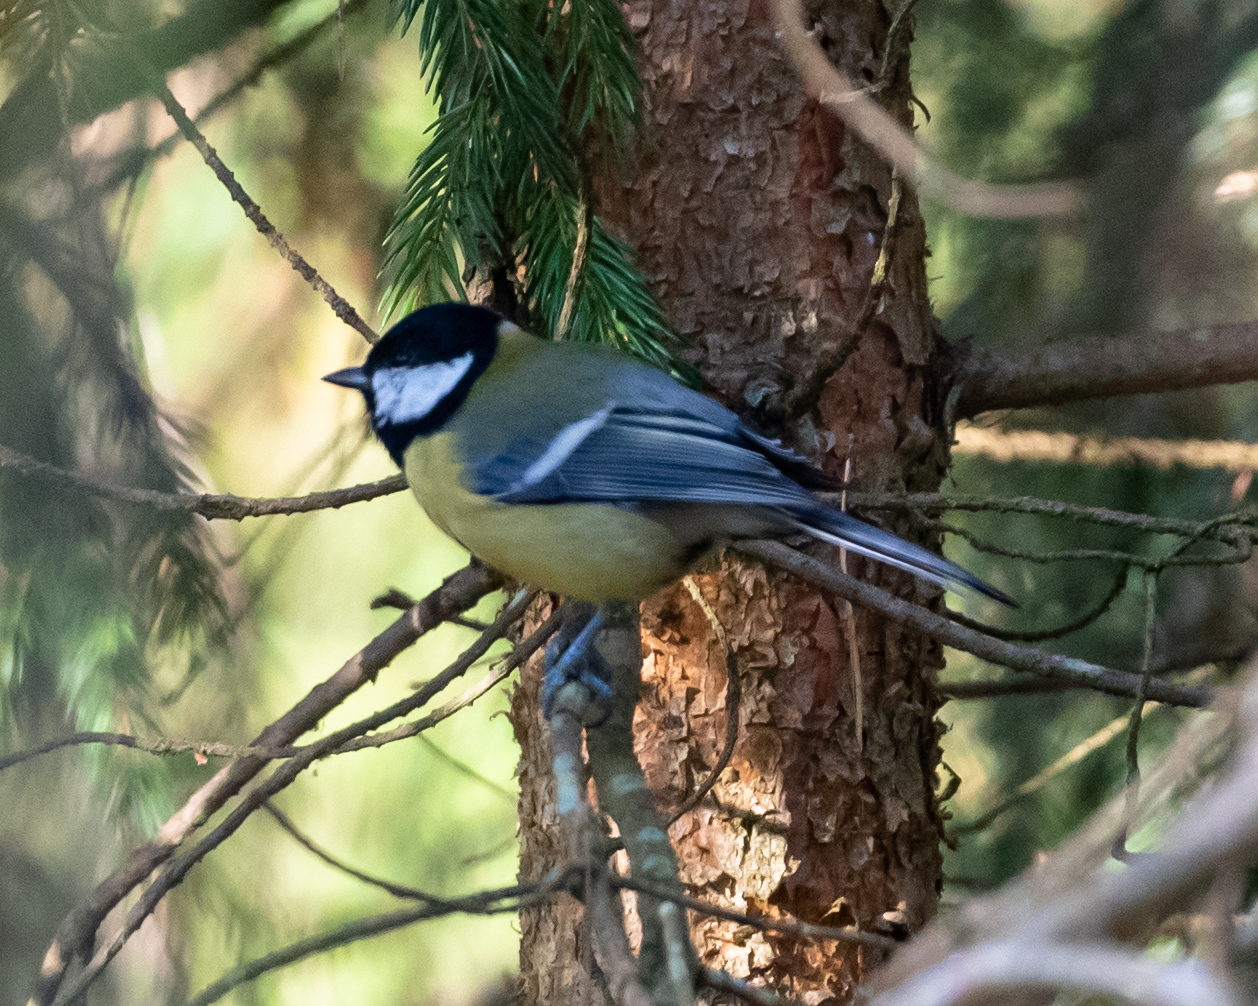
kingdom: Animalia
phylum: Chordata
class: Aves
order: Passeriformes
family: Paridae
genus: Parus
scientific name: Parus major
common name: Great tit
